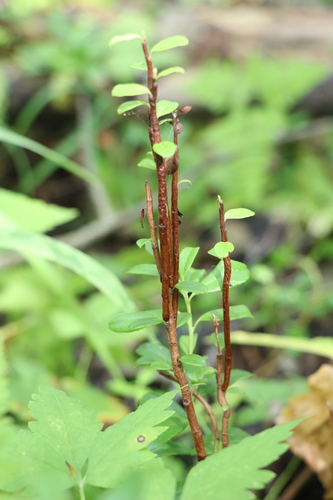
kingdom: Fungi
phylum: Basidiomycota
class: Pucciniomycetes
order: Pucciniales
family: Pucciniastraceae
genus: Calyptospora
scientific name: Calyptospora columnaris
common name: Huckleberry broom rust fungus
